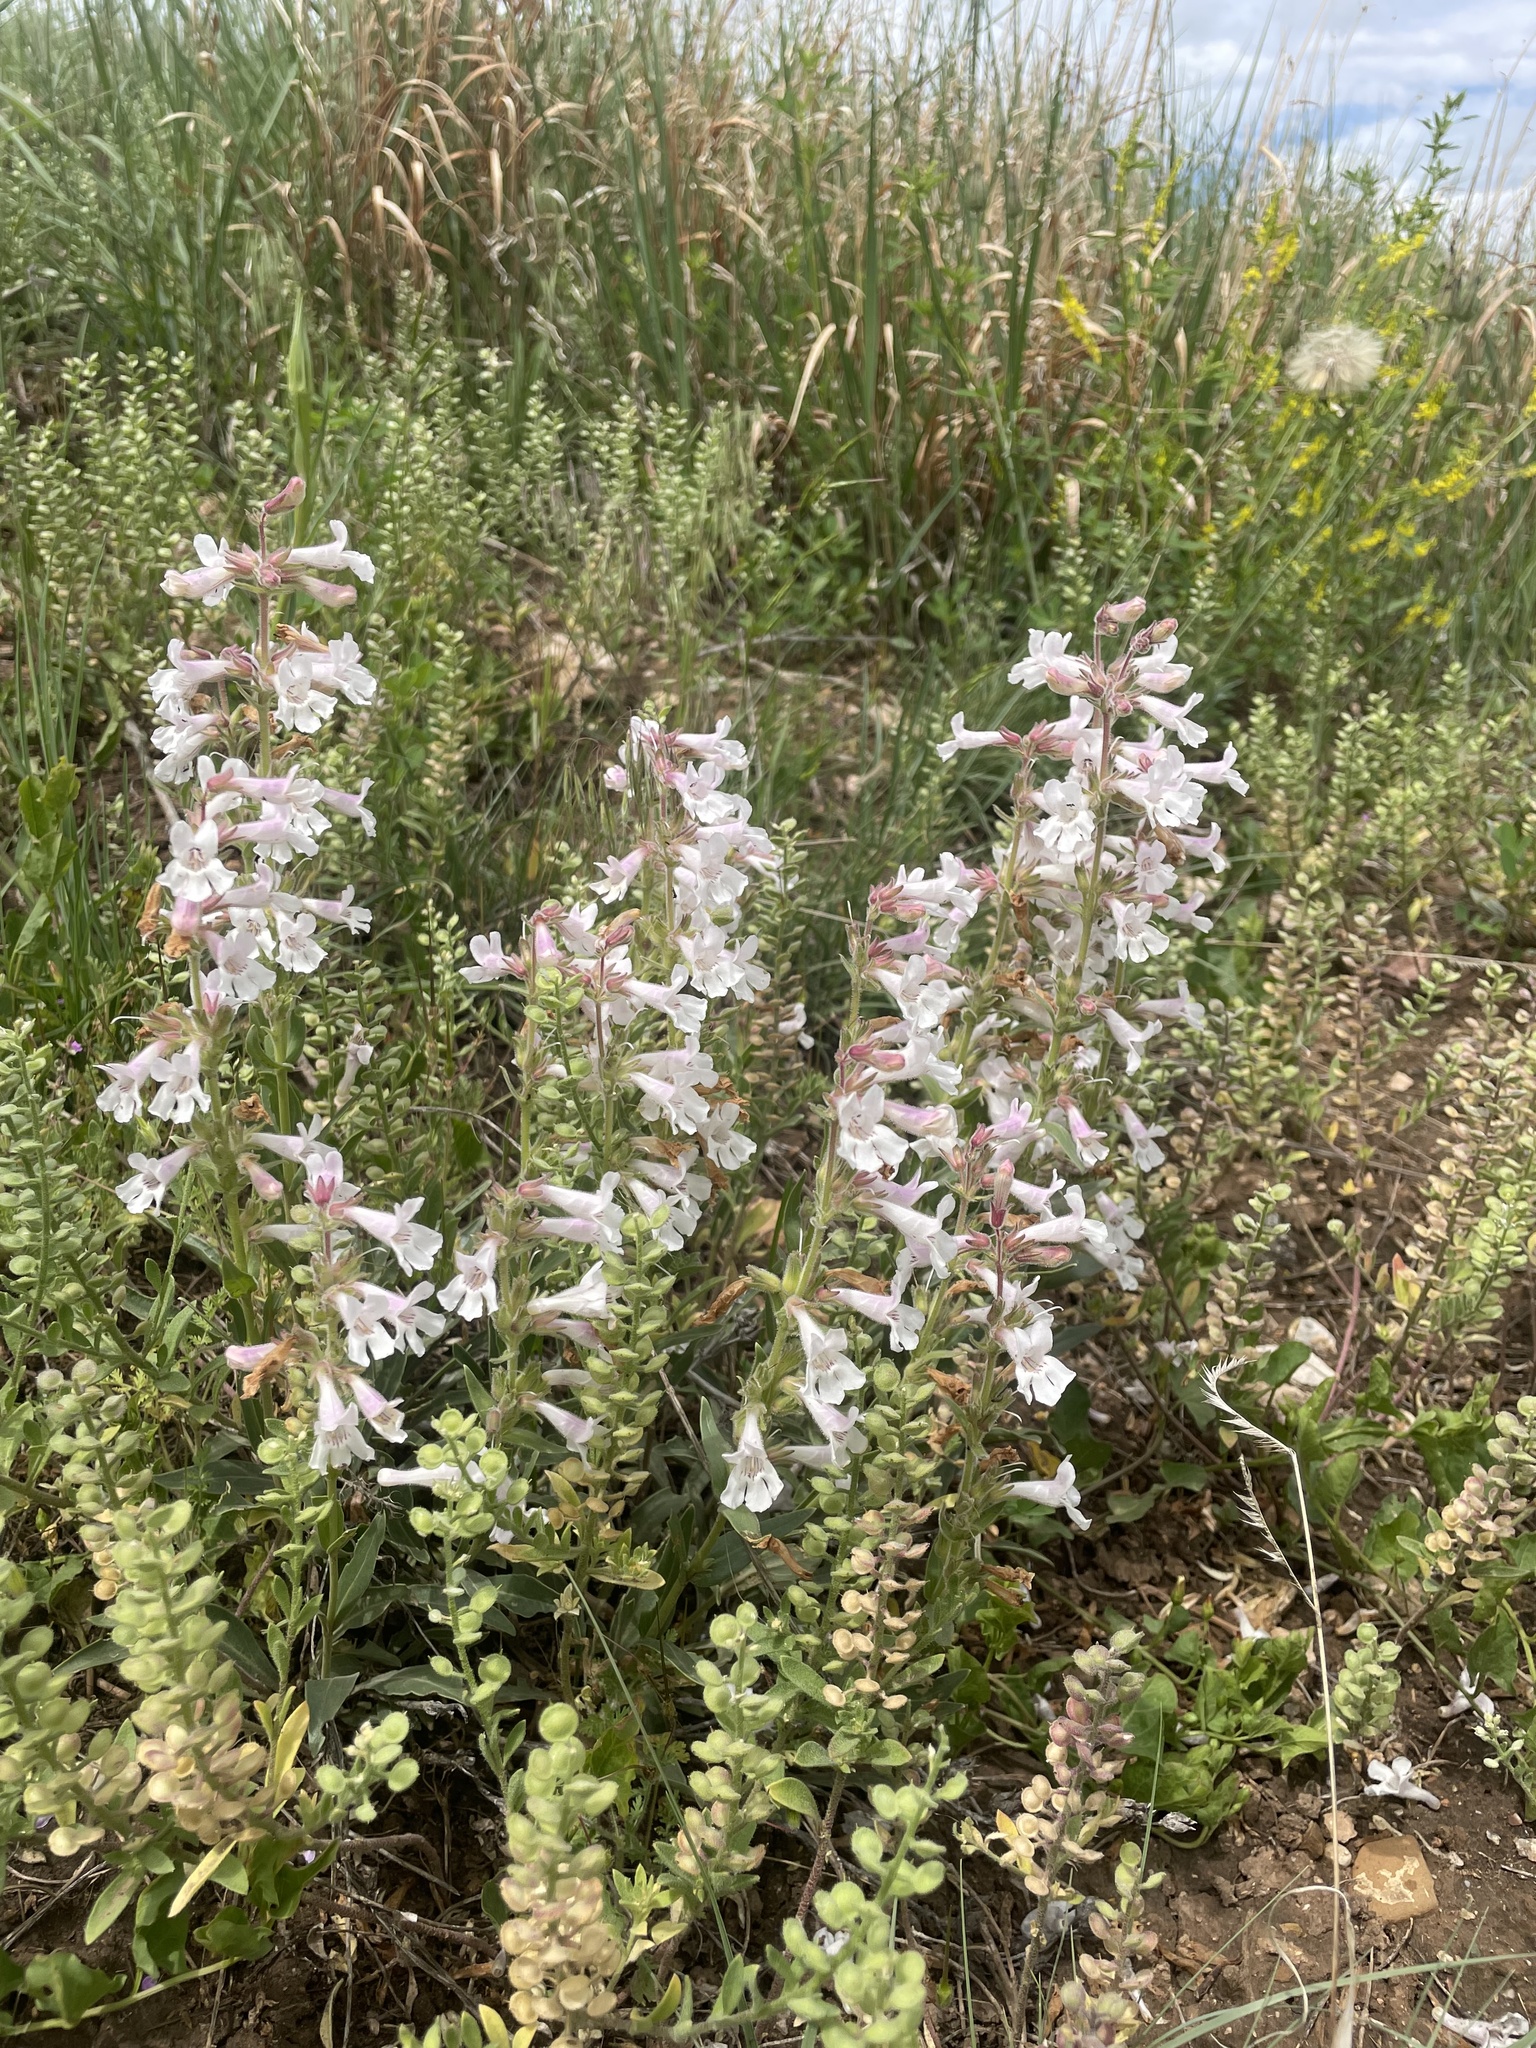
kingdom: Plantae
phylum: Tracheophyta
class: Magnoliopsida
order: Lamiales
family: Plantaginaceae
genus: Penstemon
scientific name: Penstemon albidus
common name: White beardtongue
